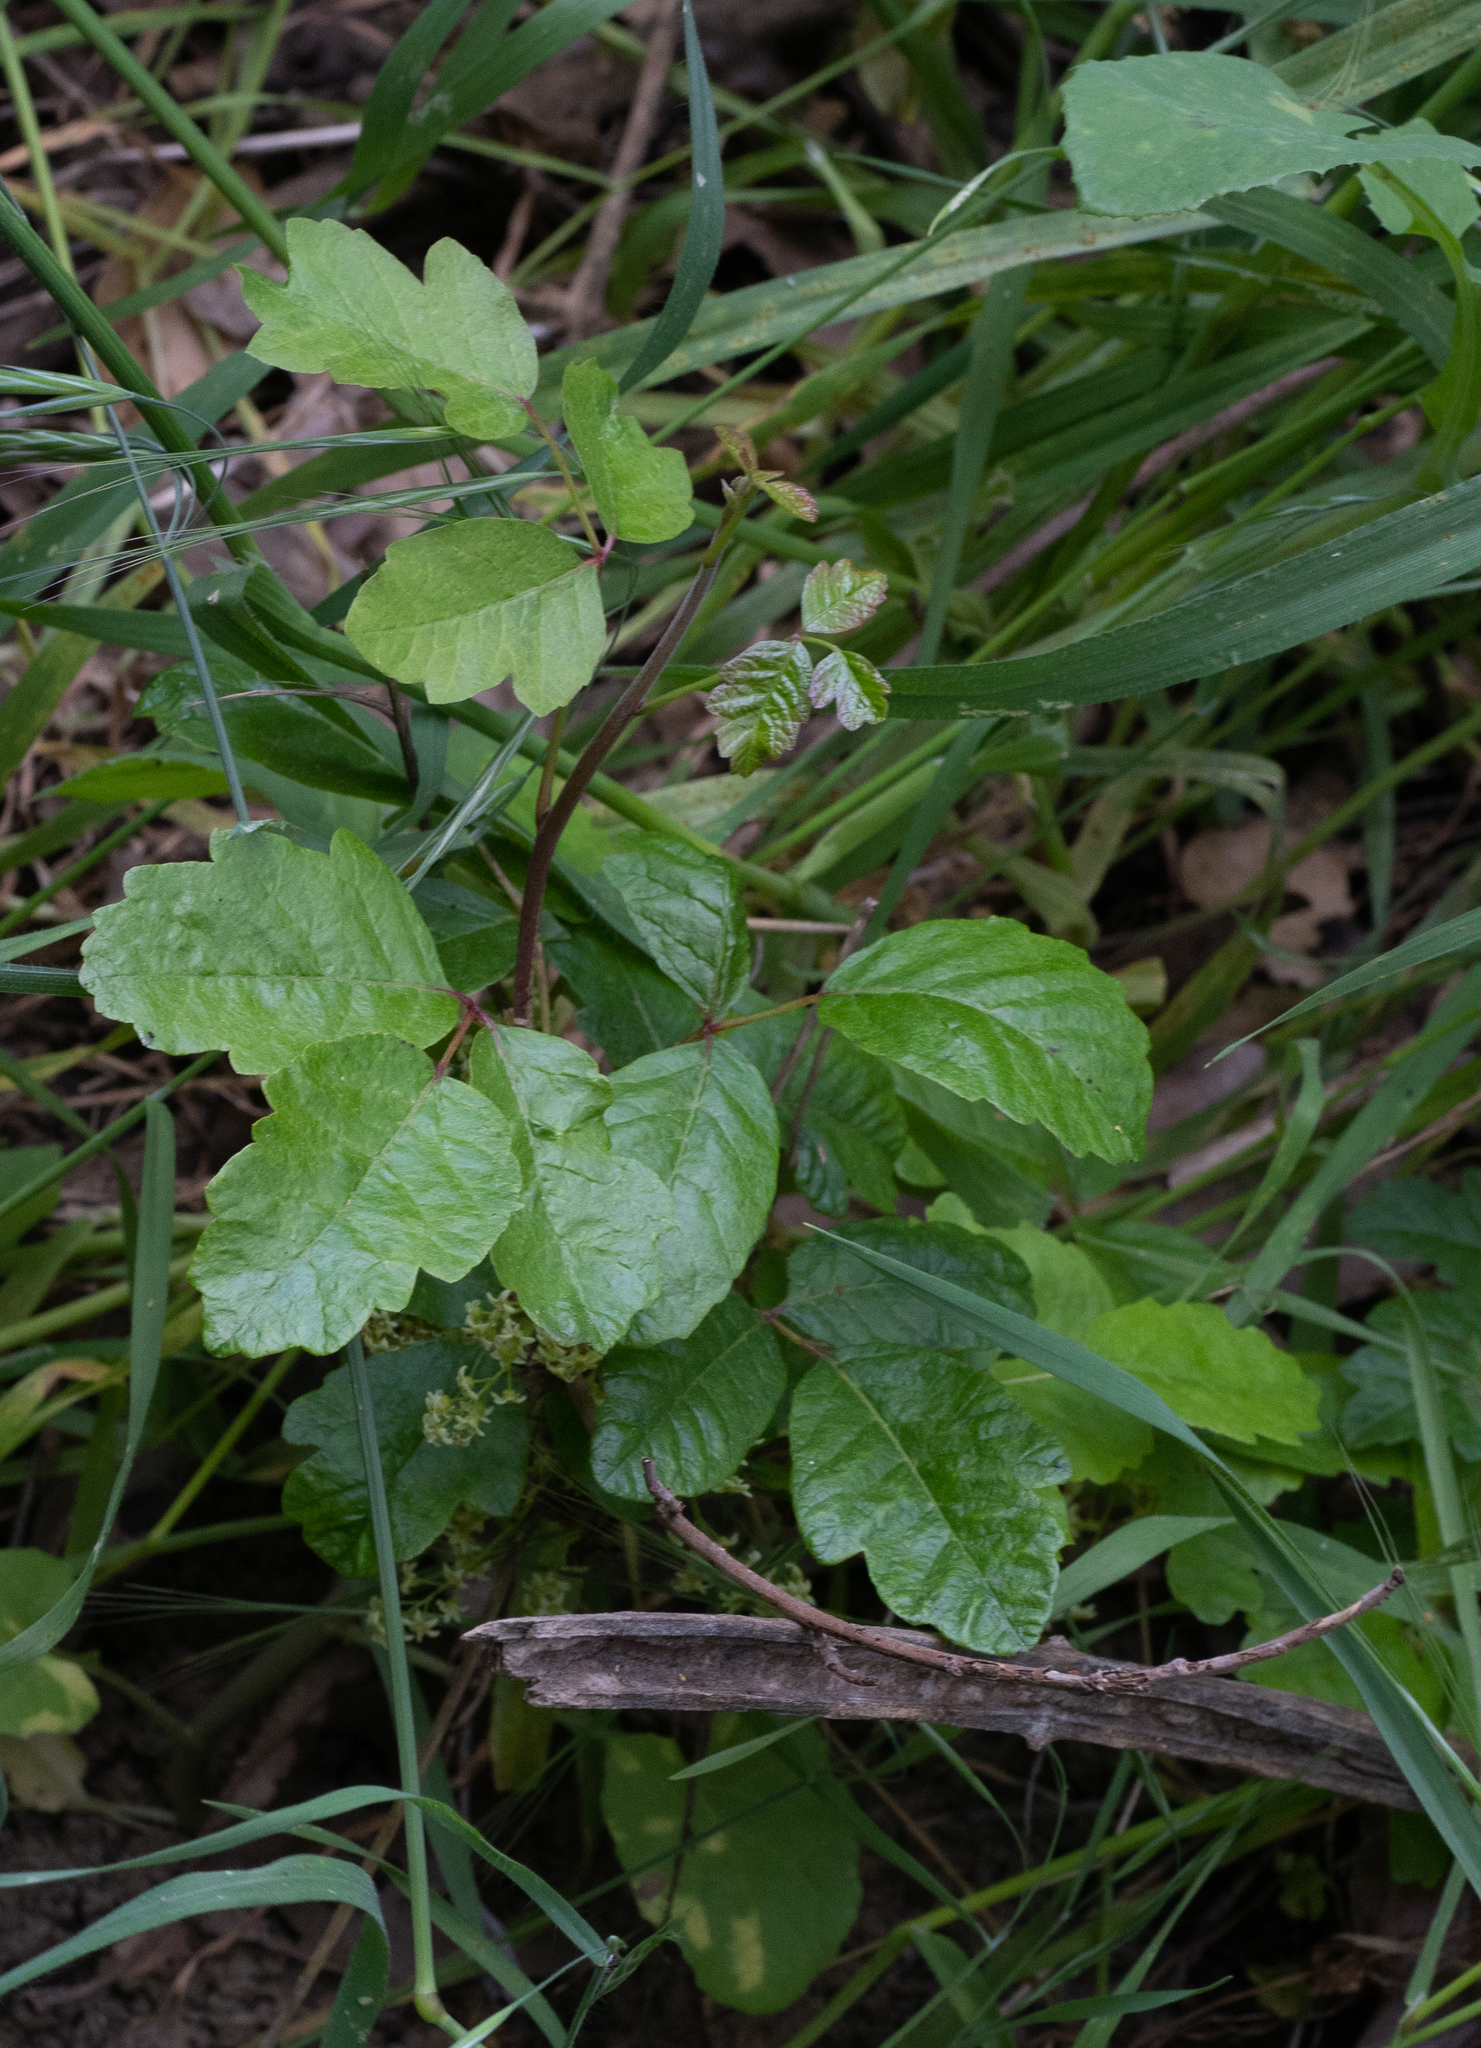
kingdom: Plantae
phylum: Tracheophyta
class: Magnoliopsida
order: Sapindales
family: Anacardiaceae
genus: Toxicodendron
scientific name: Toxicodendron diversilobum
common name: Pacific poison-oak
